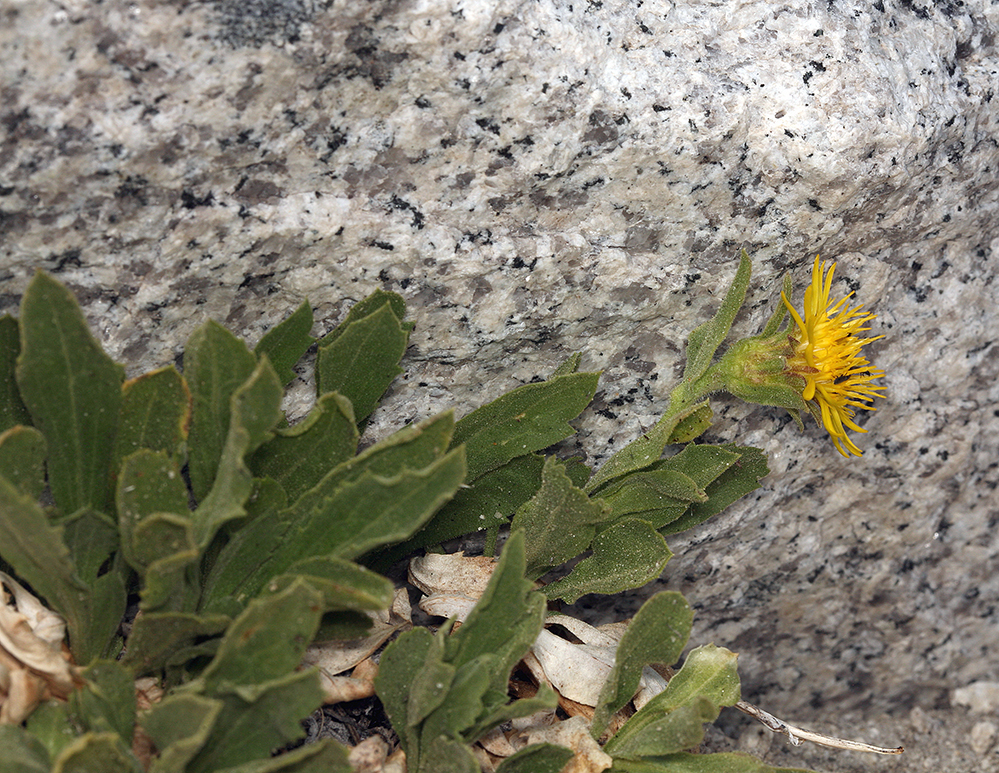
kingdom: Plantae
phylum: Tracheophyta
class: Magnoliopsida
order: Asterales
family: Asteraceae
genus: Toiyabea
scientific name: Toiyabea peirsonii
